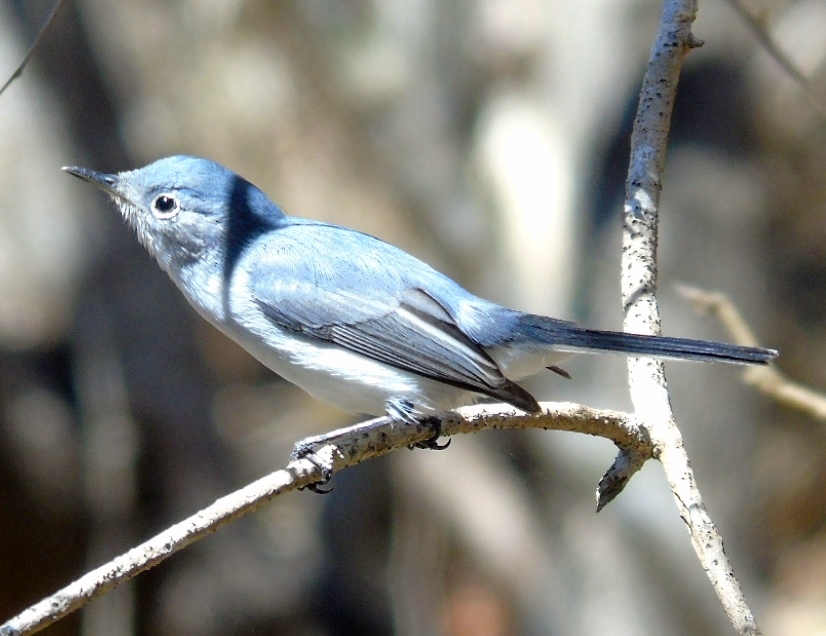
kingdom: Animalia
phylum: Chordata
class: Aves
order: Passeriformes
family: Polioptilidae
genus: Polioptila
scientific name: Polioptila caerulea
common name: Blue-gray gnatcatcher
